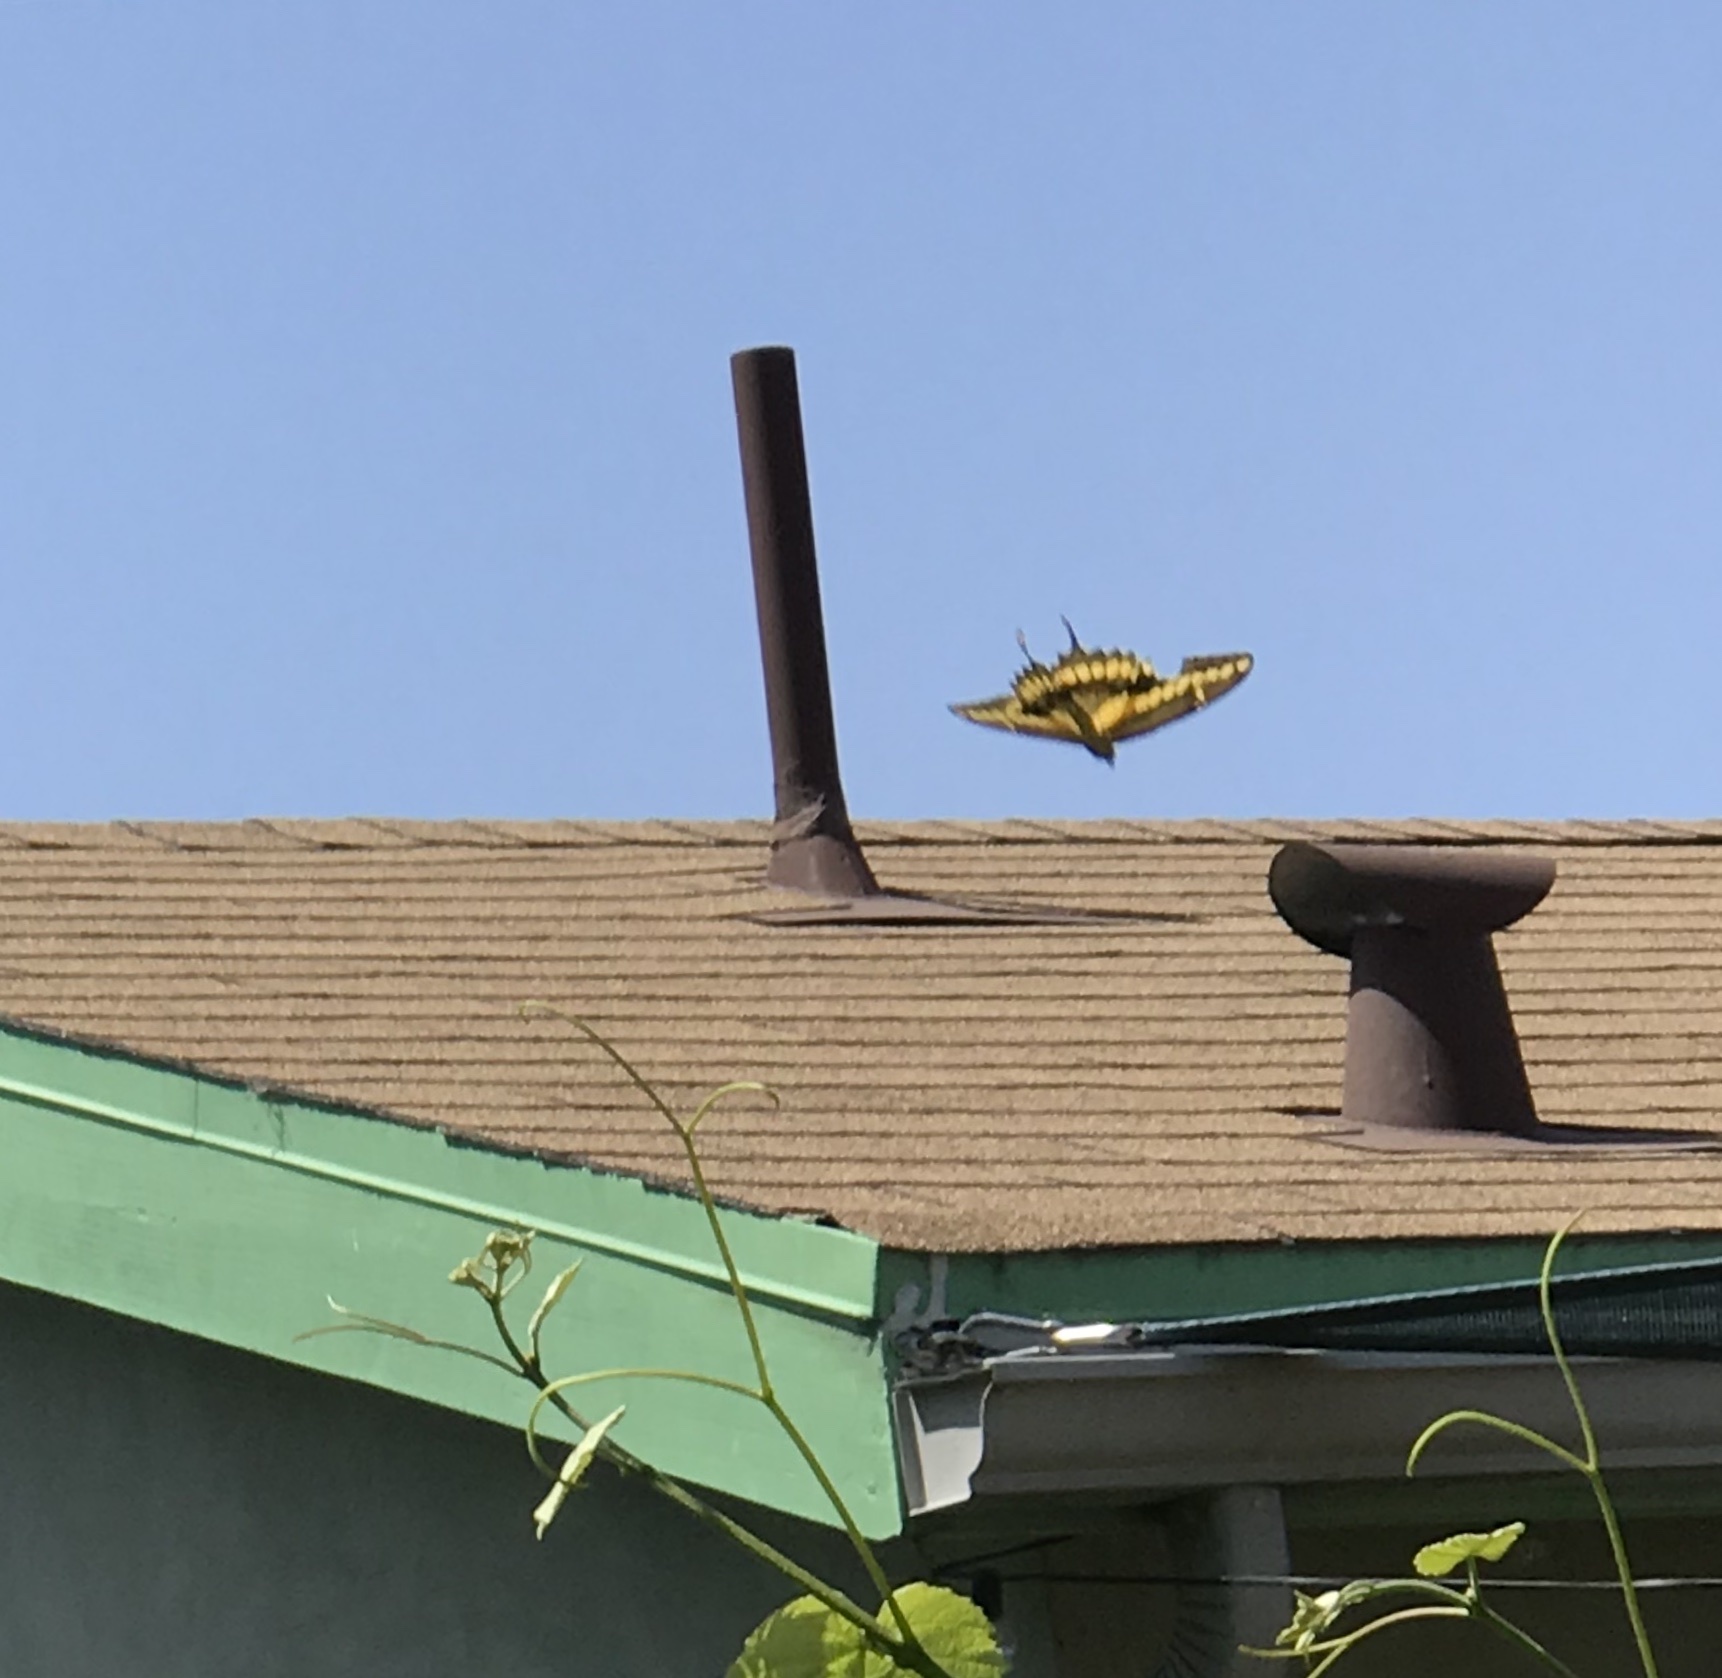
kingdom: Animalia
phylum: Arthropoda
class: Insecta
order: Lepidoptera
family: Papilionidae
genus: Papilio
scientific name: Papilio rumiko
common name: Western giant swallowtail
